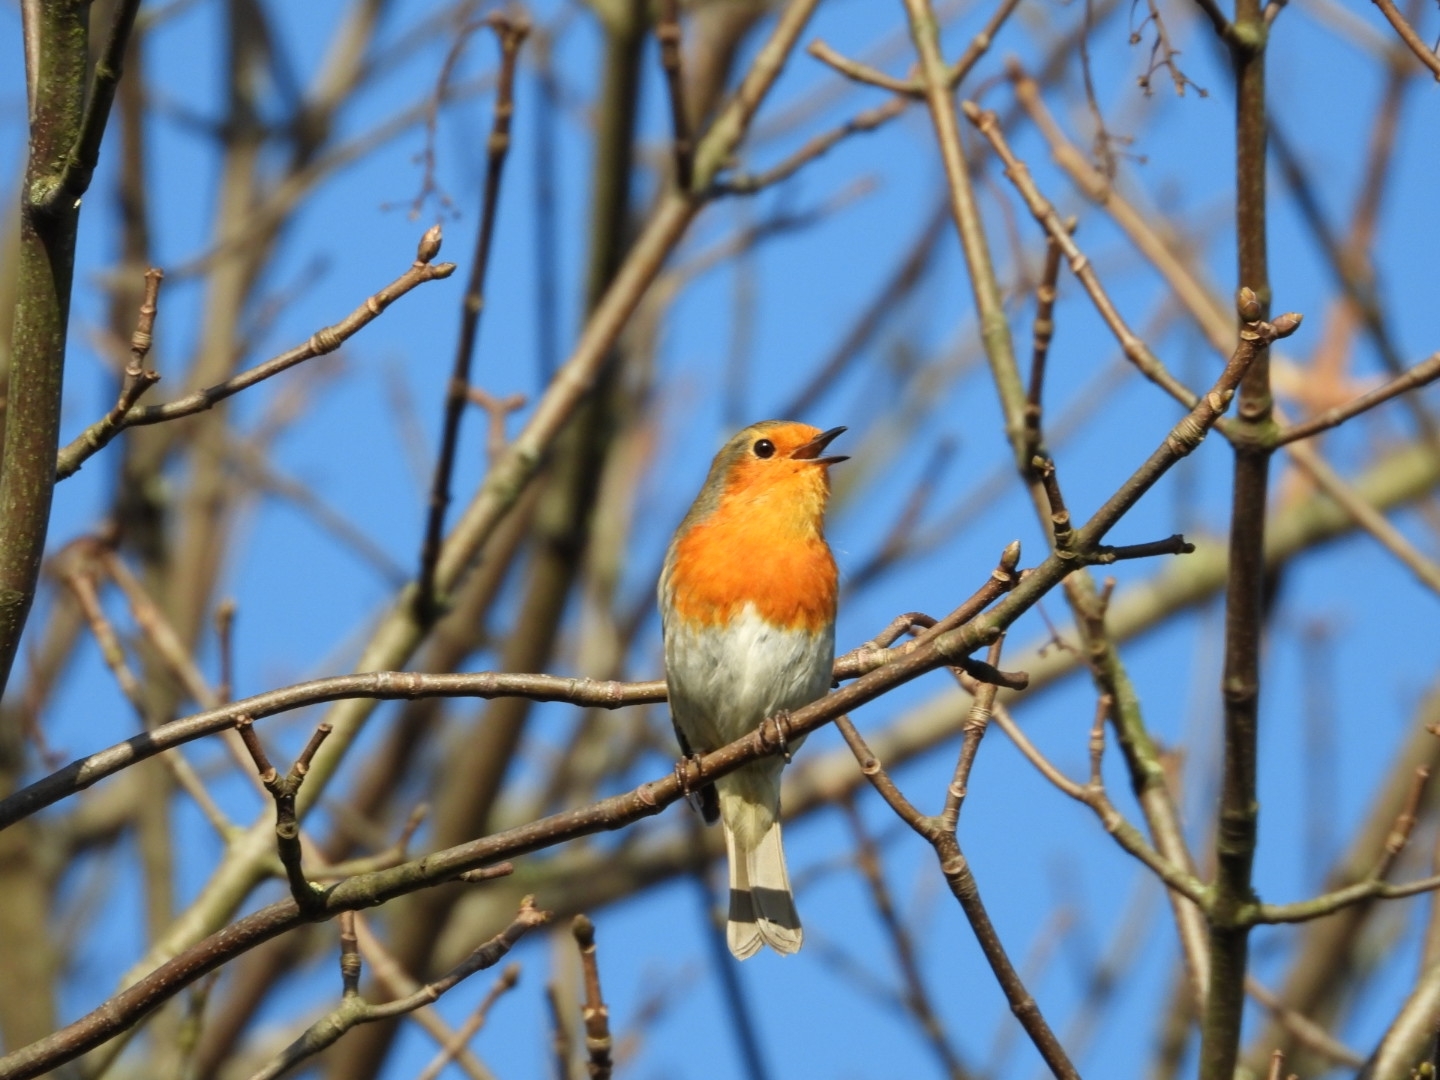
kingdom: Animalia
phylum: Chordata
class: Aves
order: Passeriformes
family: Muscicapidae
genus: Erithacus
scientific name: Erithacus rubecula
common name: European robin
